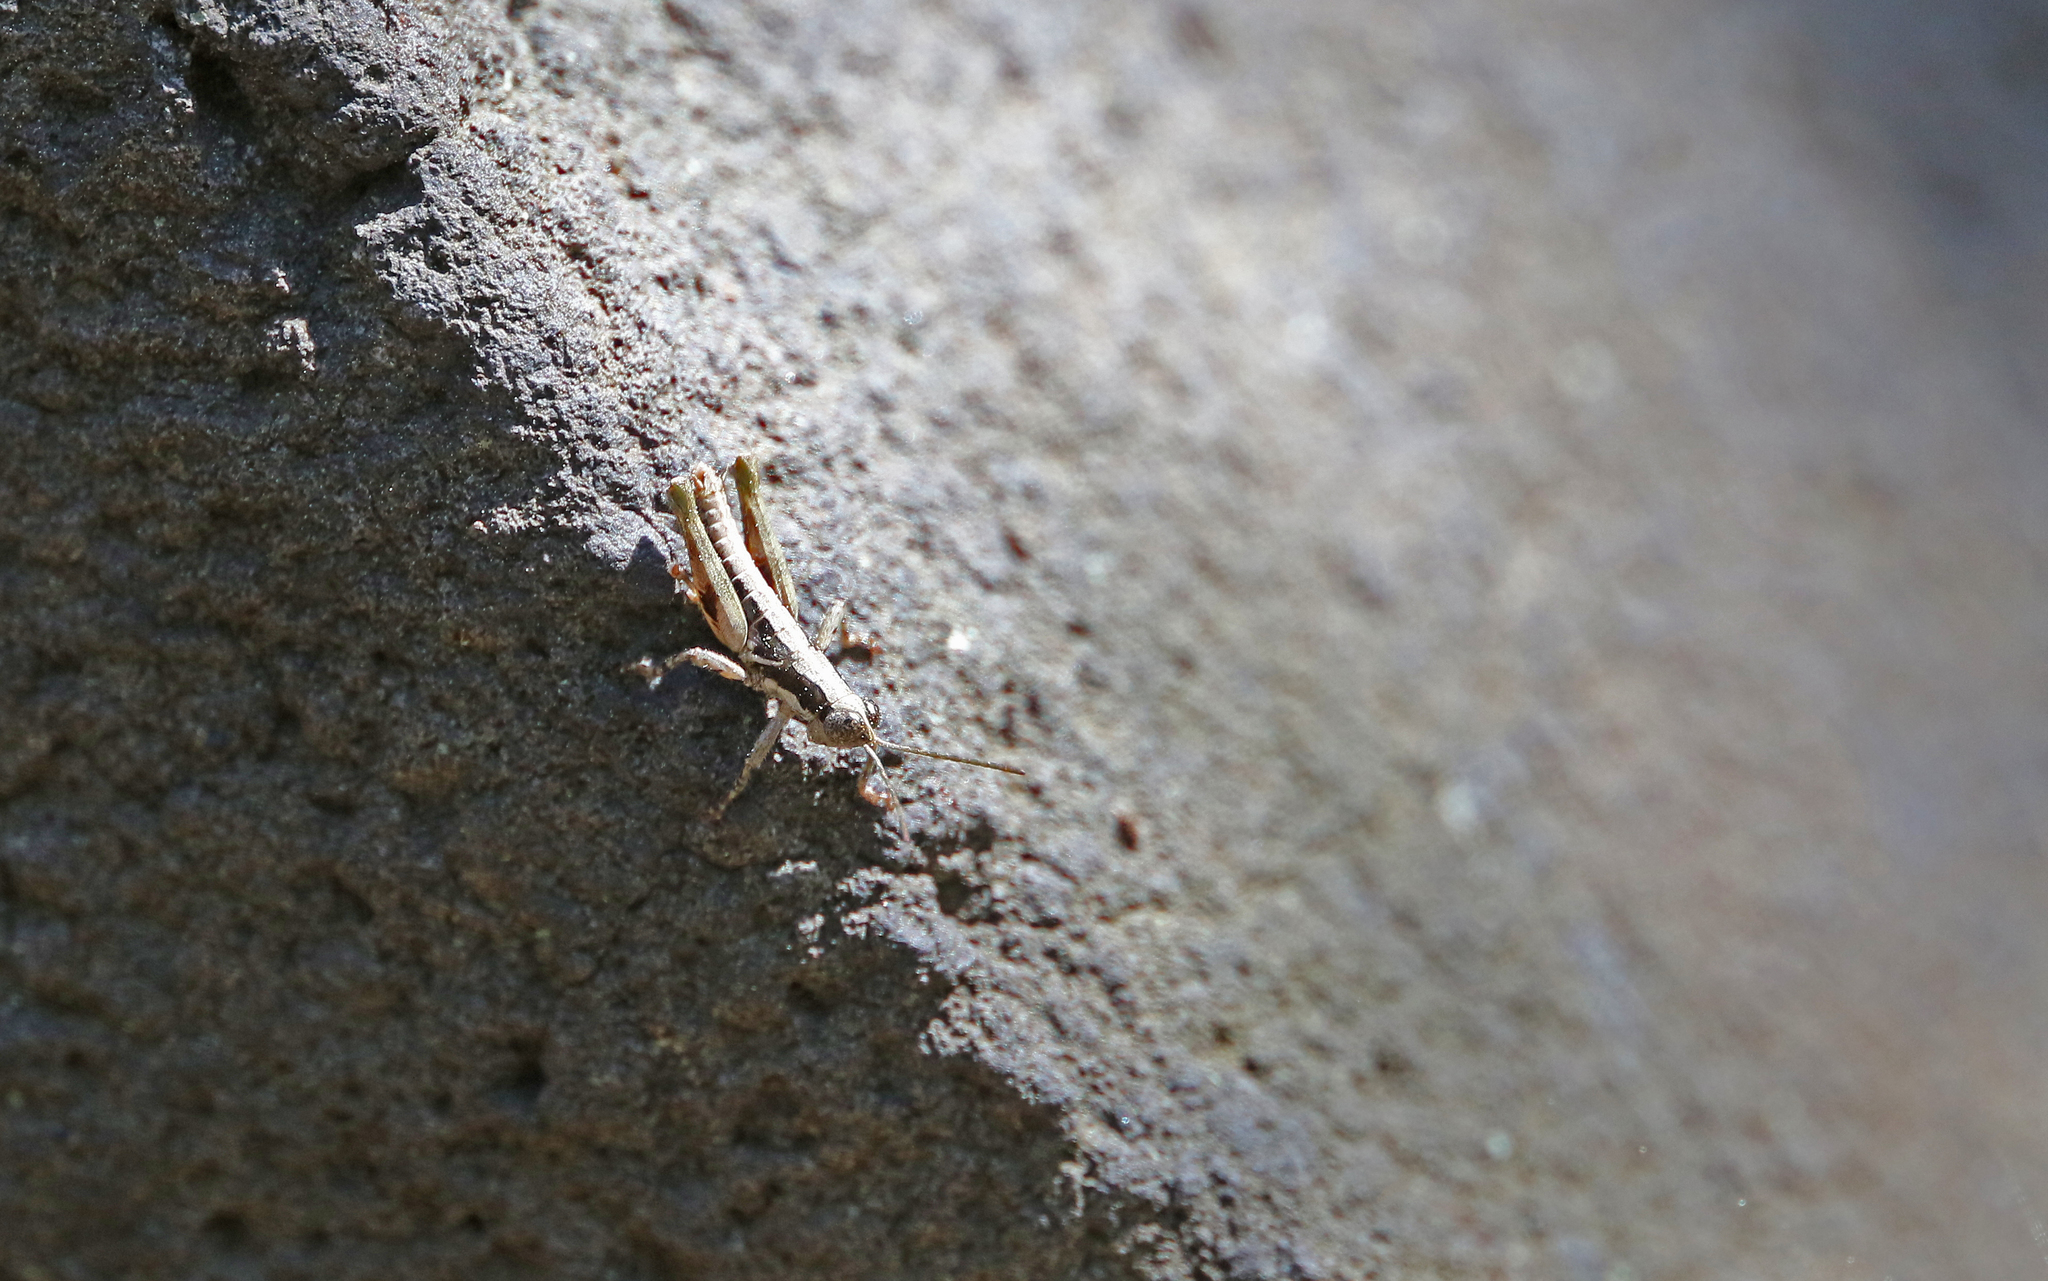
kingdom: Animalia
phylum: Arthropoda
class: Insecta
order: Orthoptera
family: Acrididae
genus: Arminda
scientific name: Arminda brunneri
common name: Tenerife rock grasshopper
